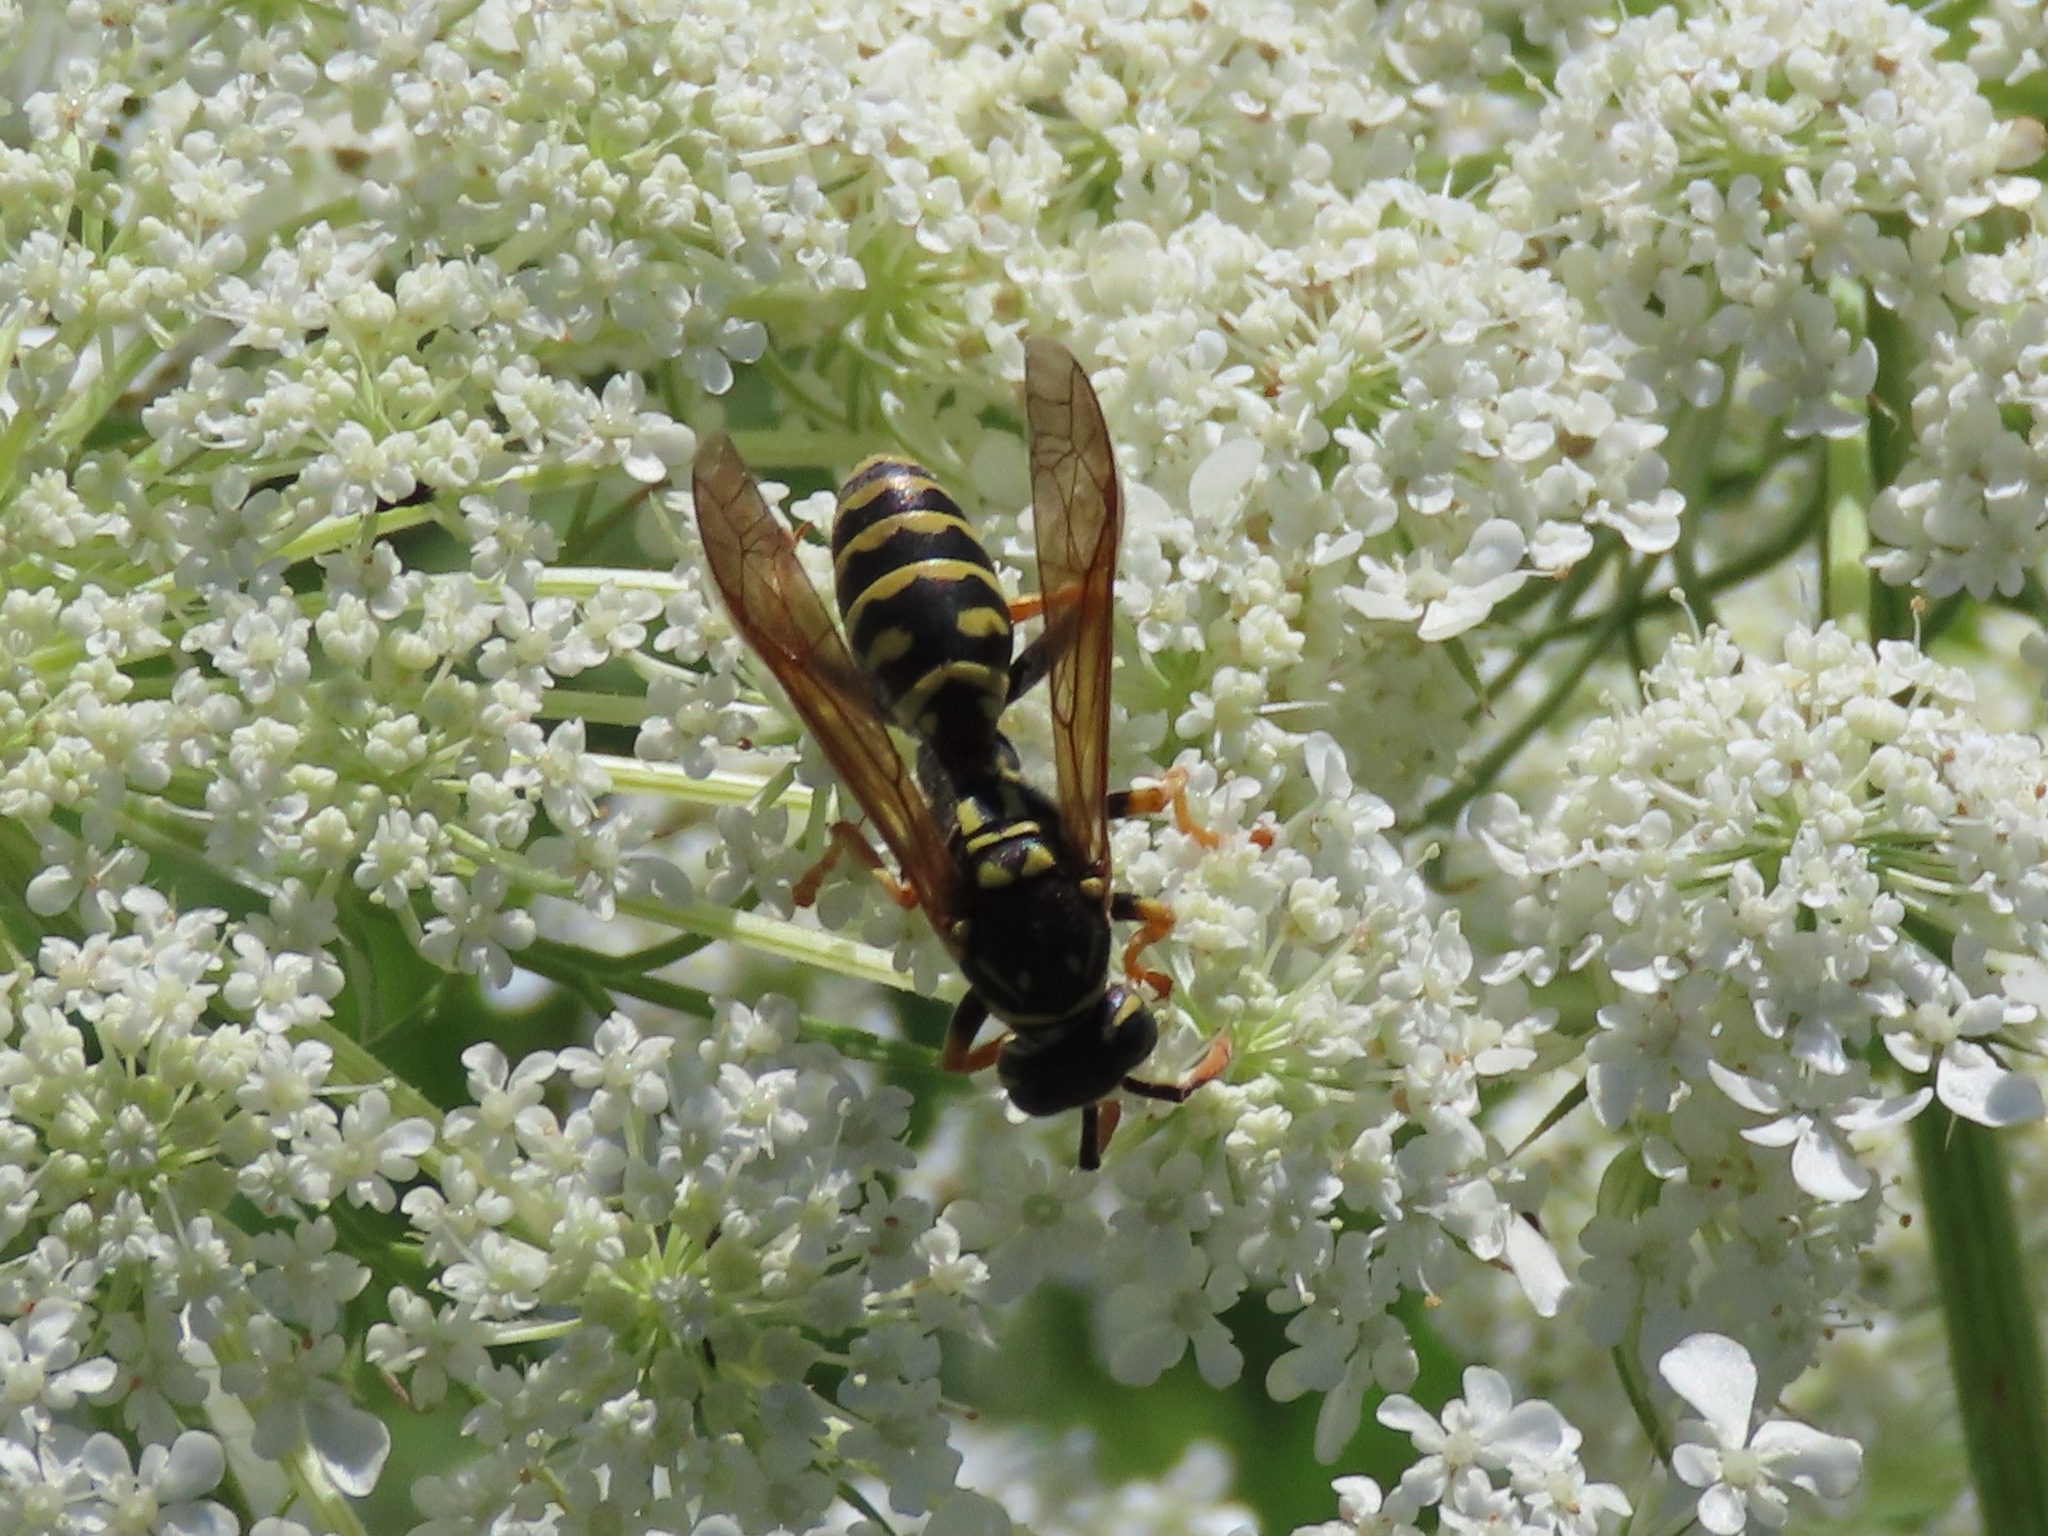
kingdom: Animalia
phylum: Arthropoda
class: Insecta
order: Hymenoptera
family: Eumenidae
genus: Polistes
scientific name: Polistes dominula
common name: Paper wasp
